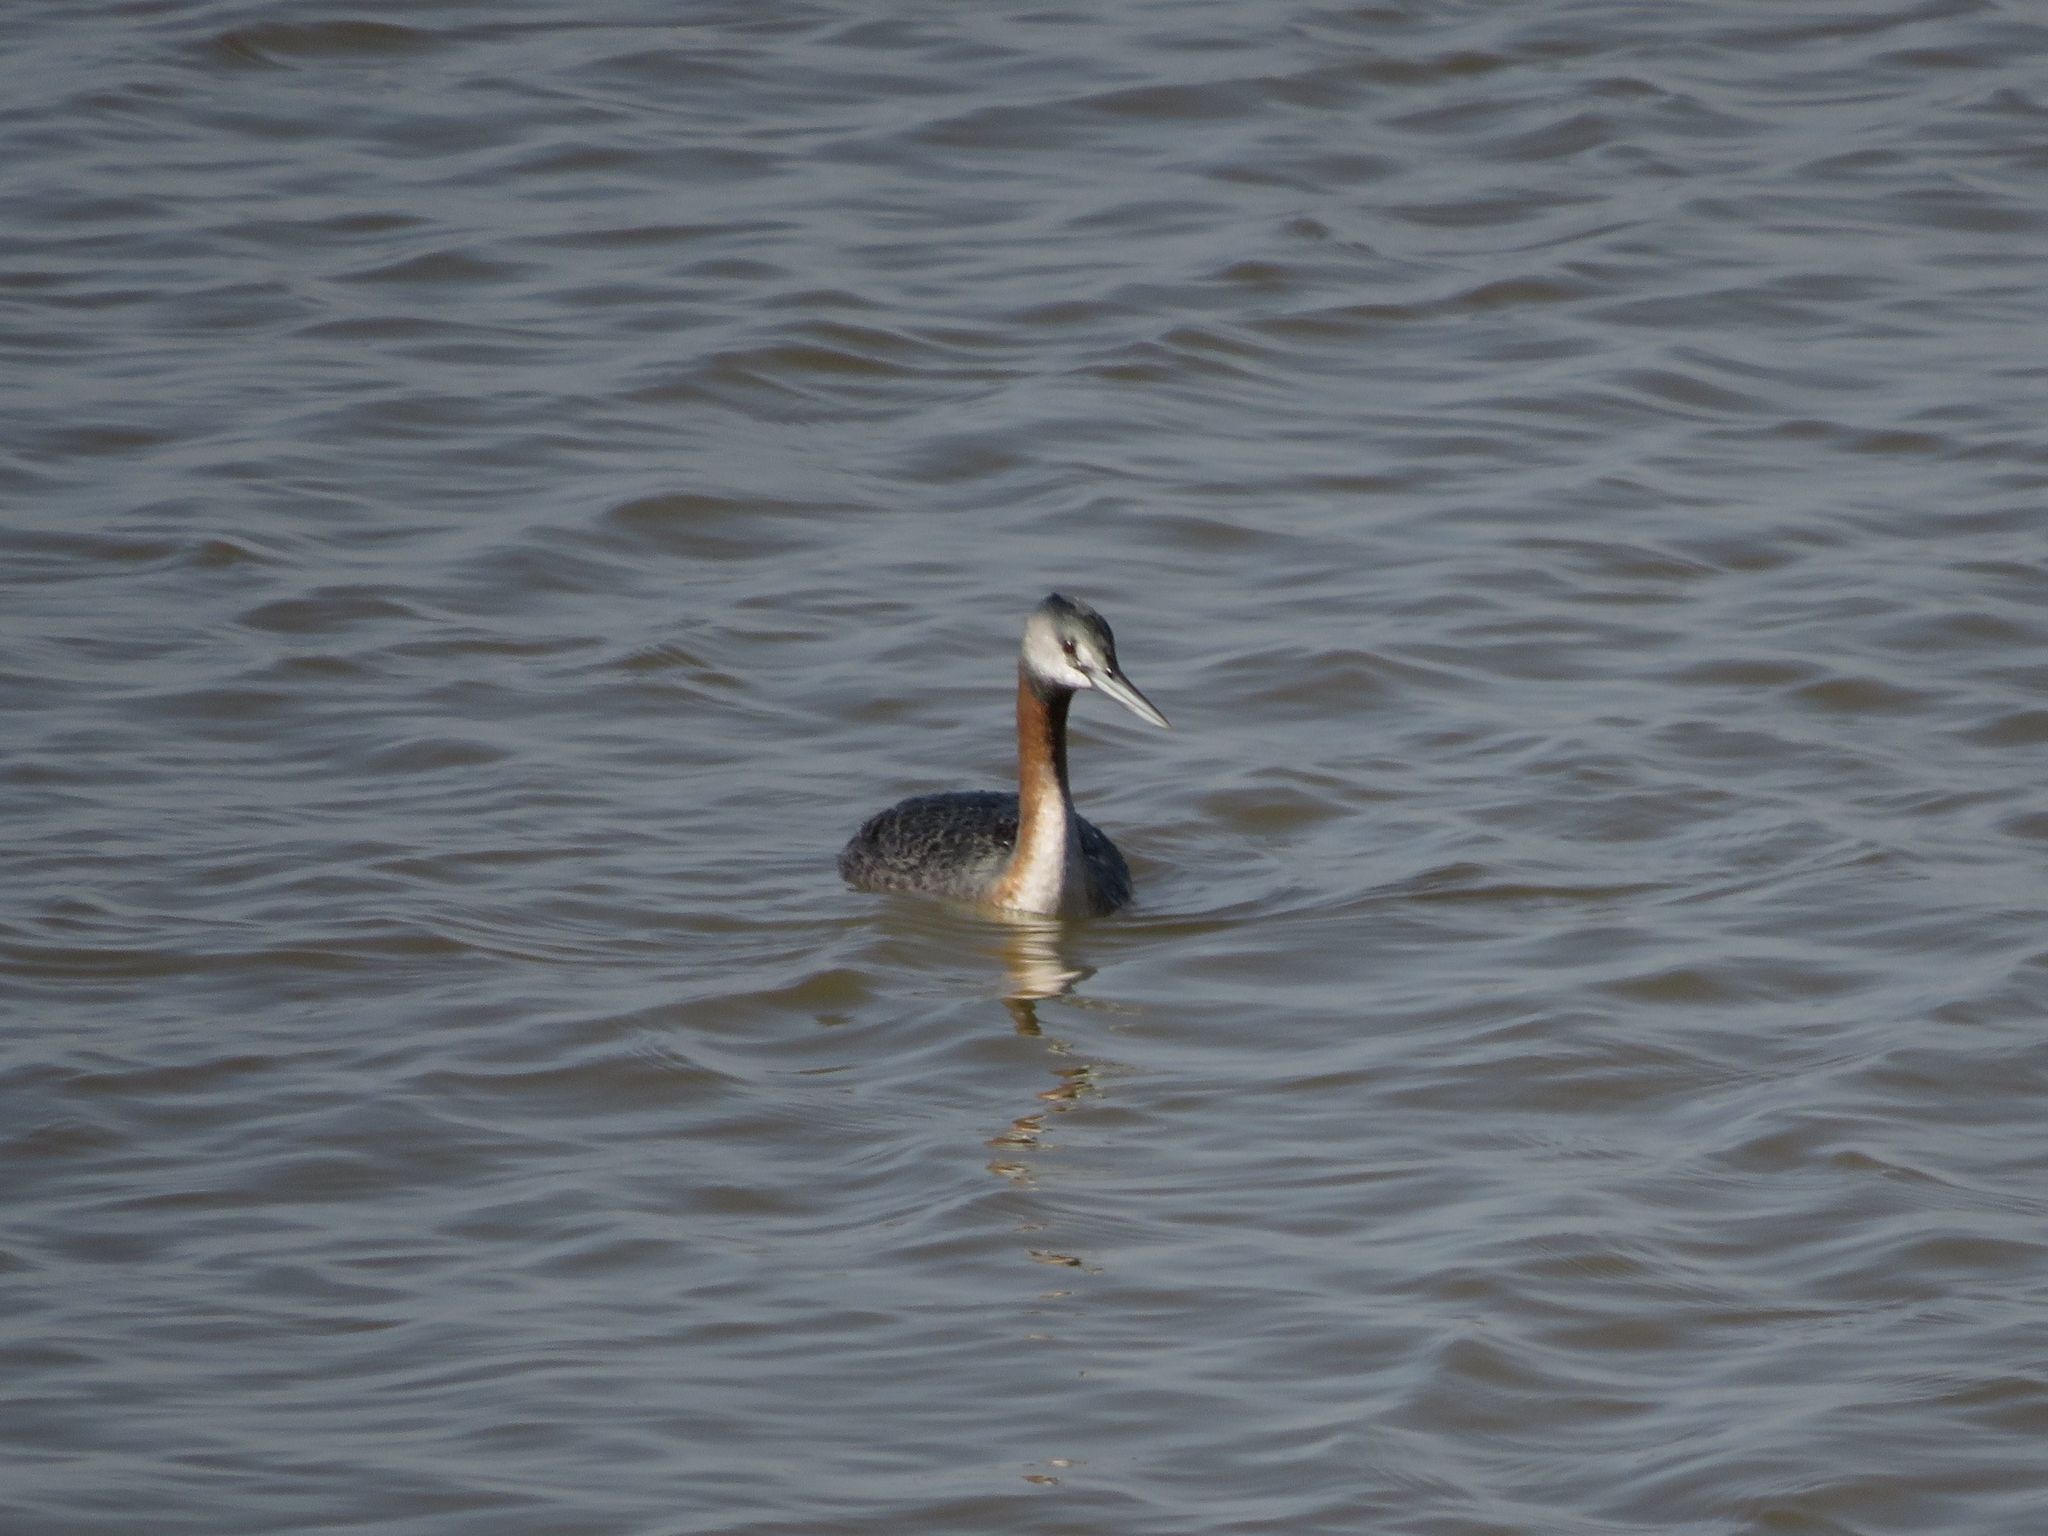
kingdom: Animalia
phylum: Chordata
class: Aves
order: Podicipediformes
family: Podicipedidae
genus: Podiceps
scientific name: Podiceps major
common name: Great grebe
